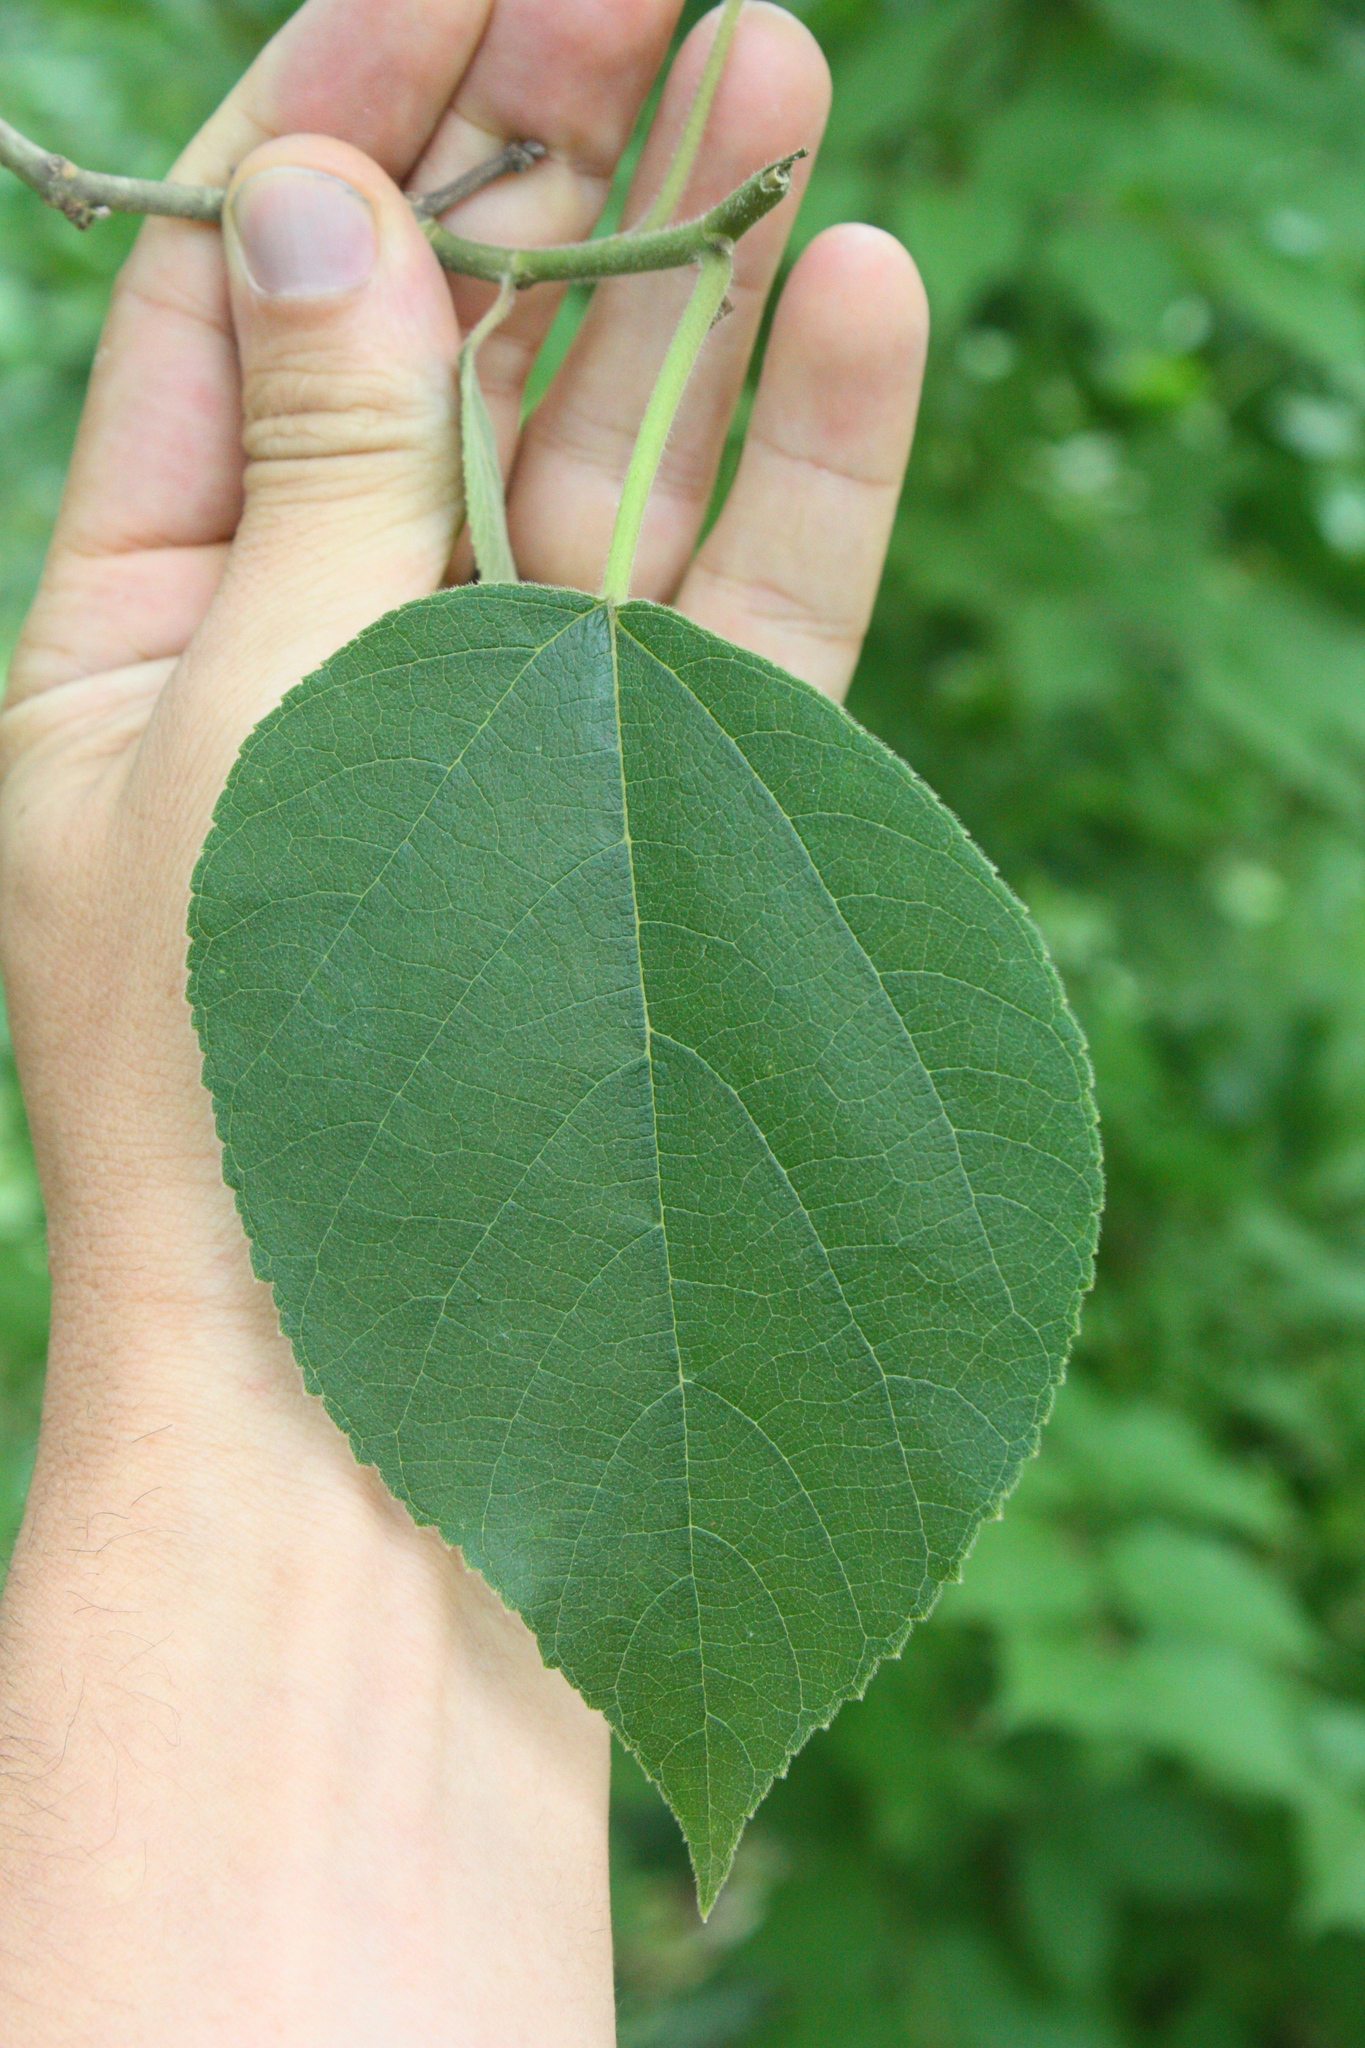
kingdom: Plantae
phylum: Tracheophyta
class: Magnoliopsida
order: Rosales
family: Moraceae
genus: Broussonetia
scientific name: Broussonetia papyrifera
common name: Paper mulberry
